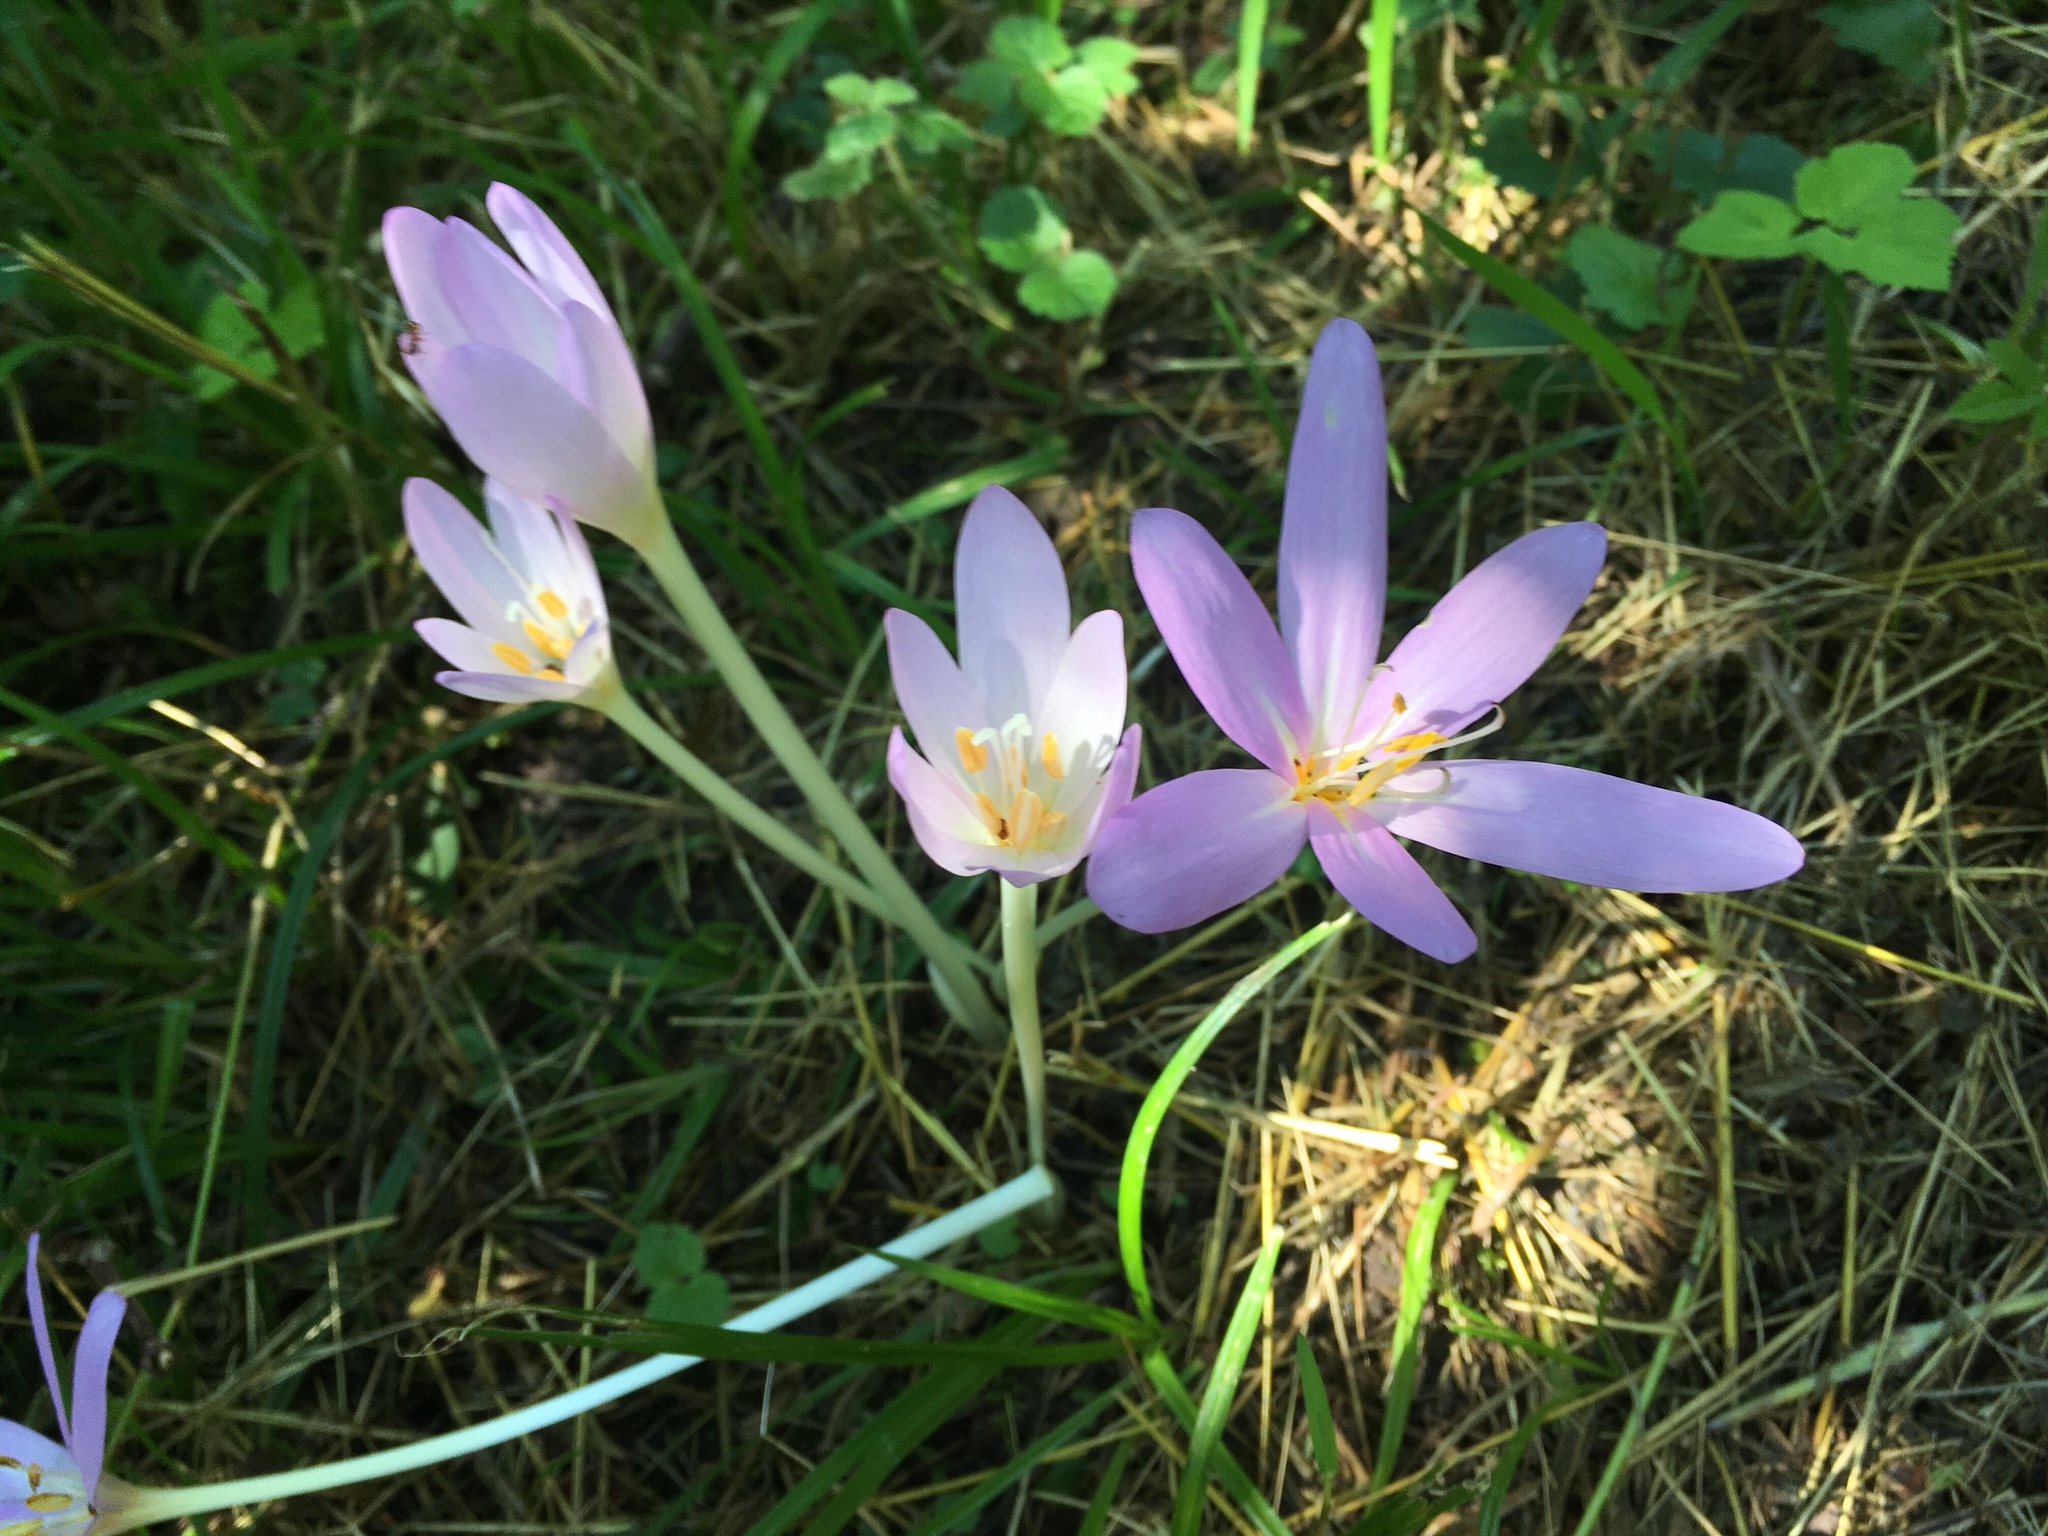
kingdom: Plantae
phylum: Tracheophyta
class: Liliopsida
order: Liliales
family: Colchicaceae
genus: Colchicum
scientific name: Colchicum autumnale
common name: Autumn crocus
